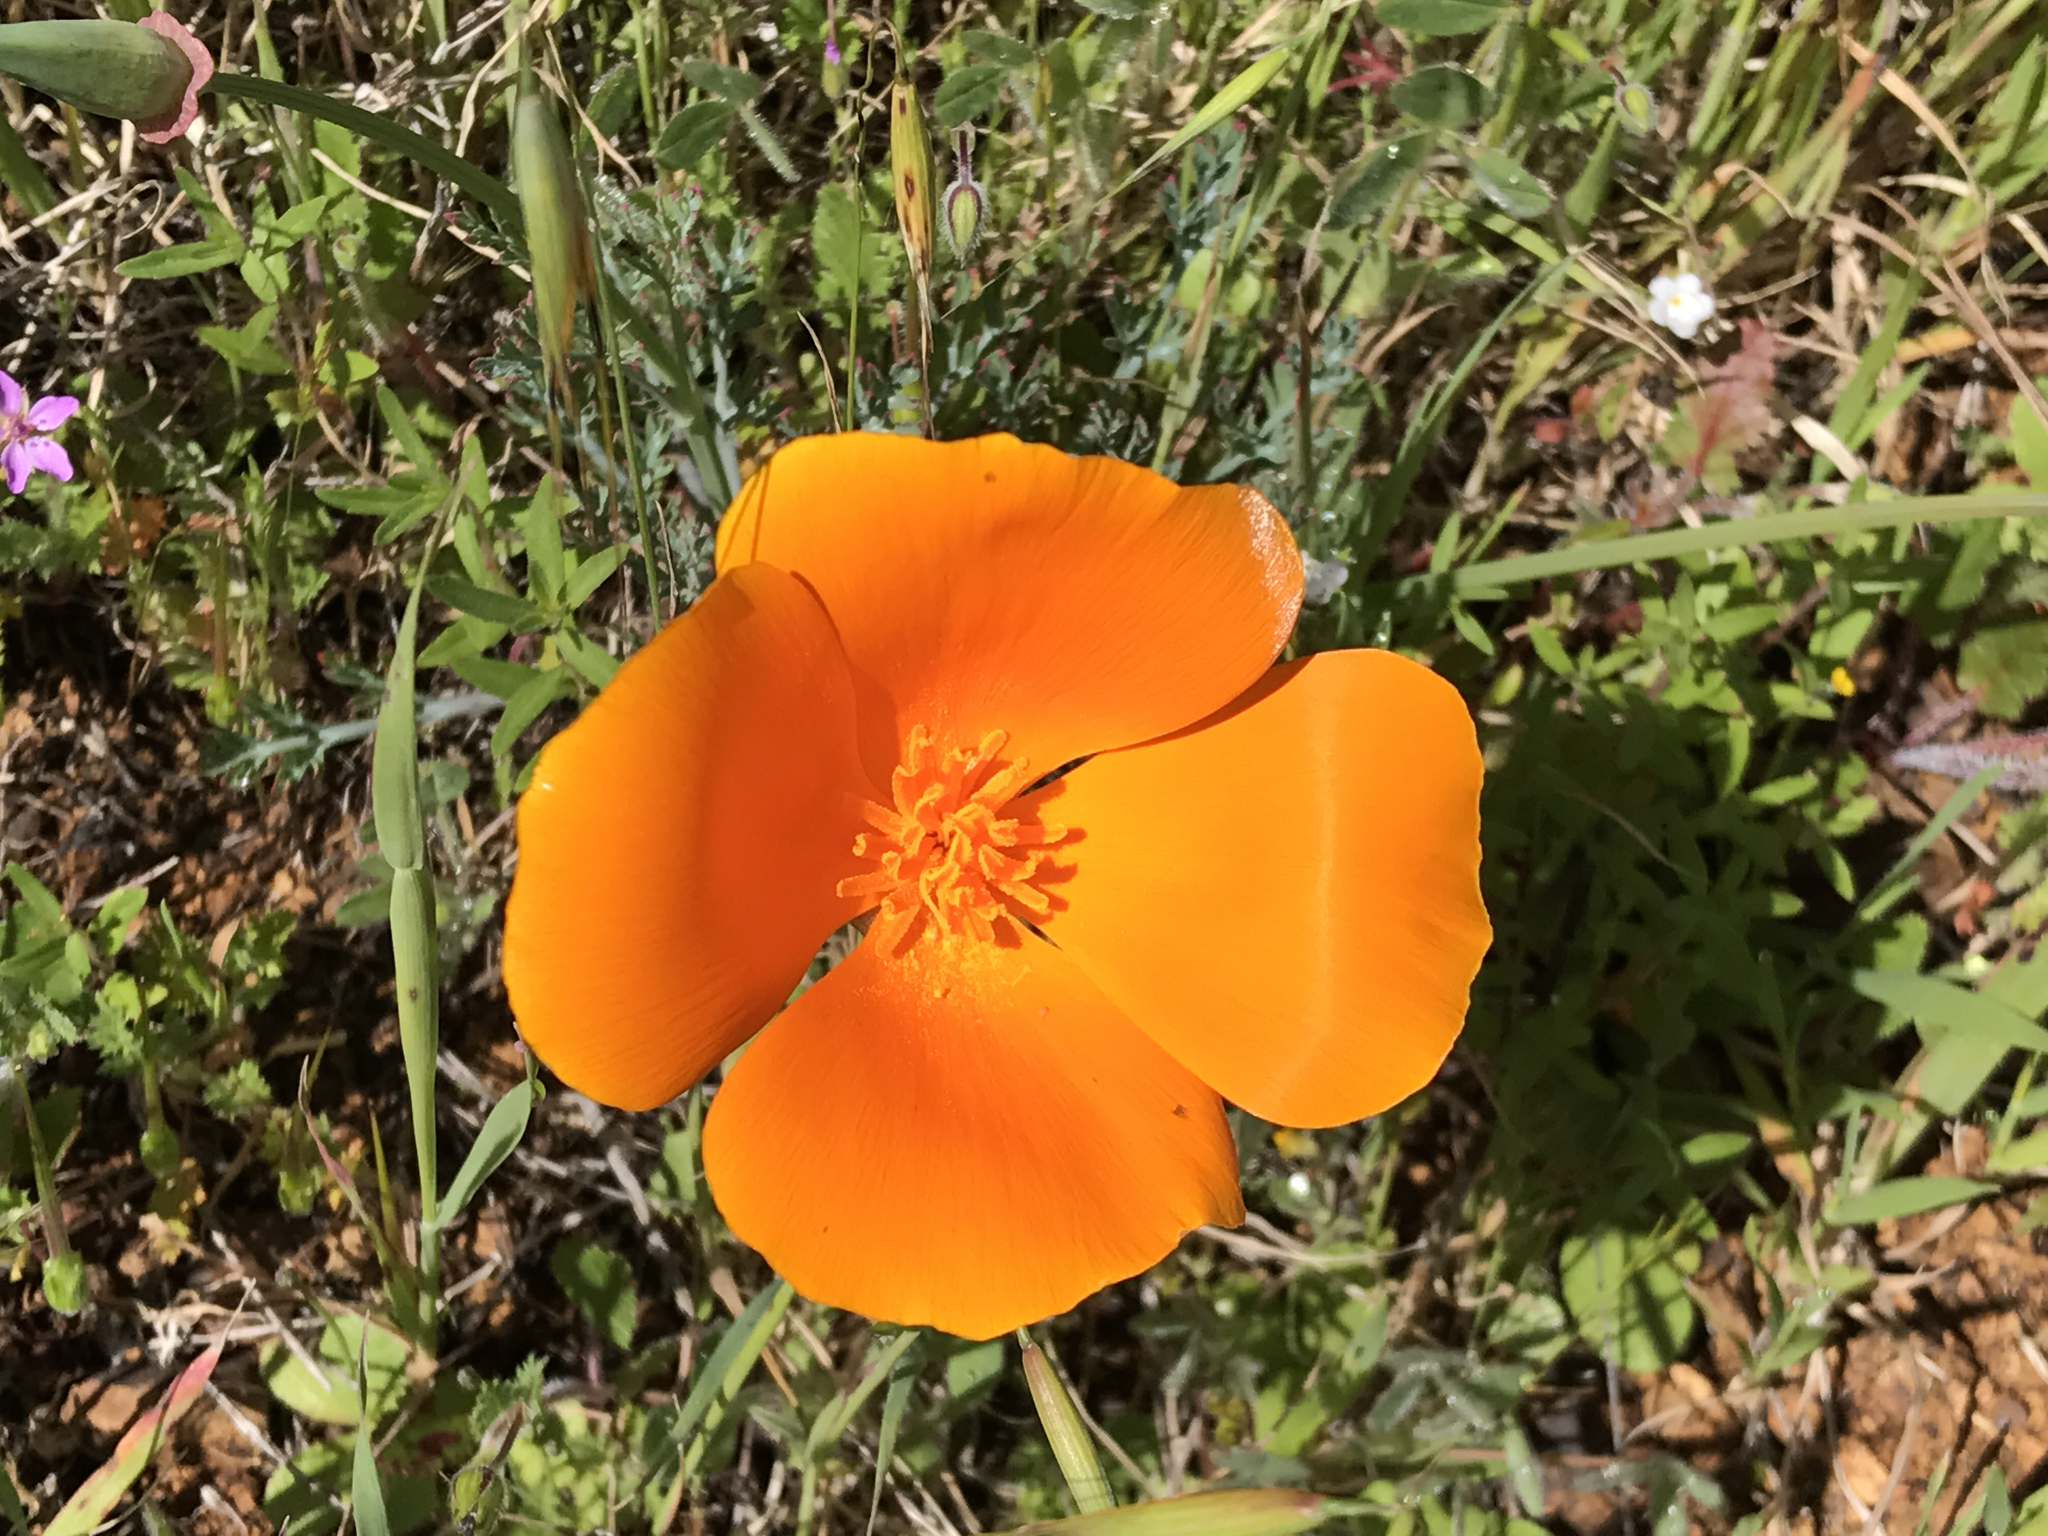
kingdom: Plantae
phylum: Tracheophyta
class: Magnoliopsida
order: Ranunculales
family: Papaveraceae
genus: Eschscholzia
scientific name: Eschscholzia californica
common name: California poppy
